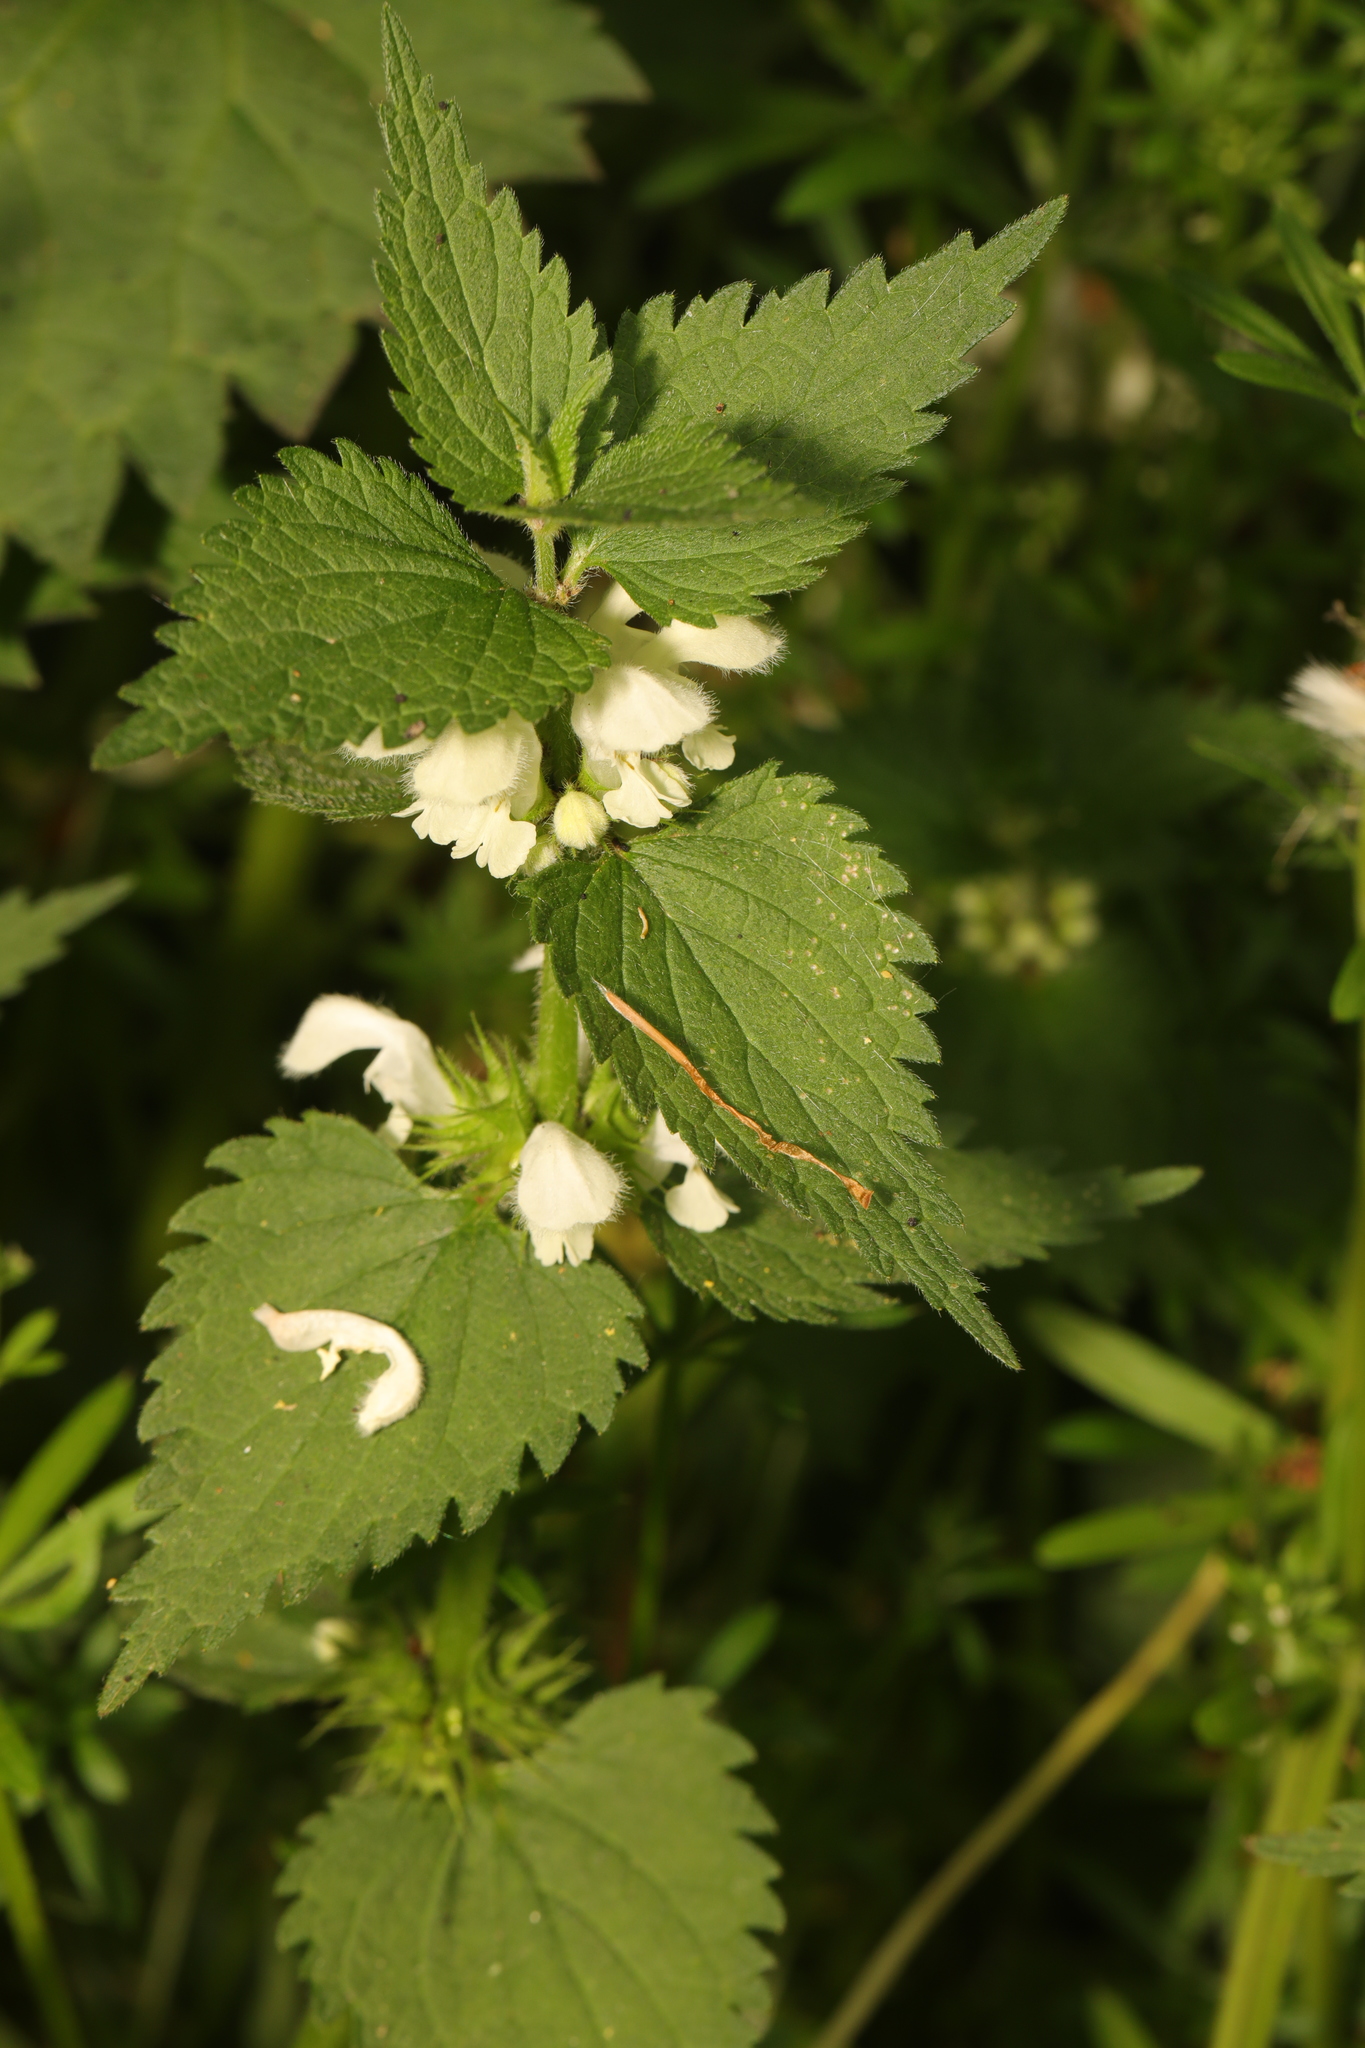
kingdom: Plantae
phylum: Tracheophyta
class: Magnoliopsida
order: Lamiales
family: Lamiaceae
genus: Lamium
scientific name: Lamium album
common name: White dead-nettle
